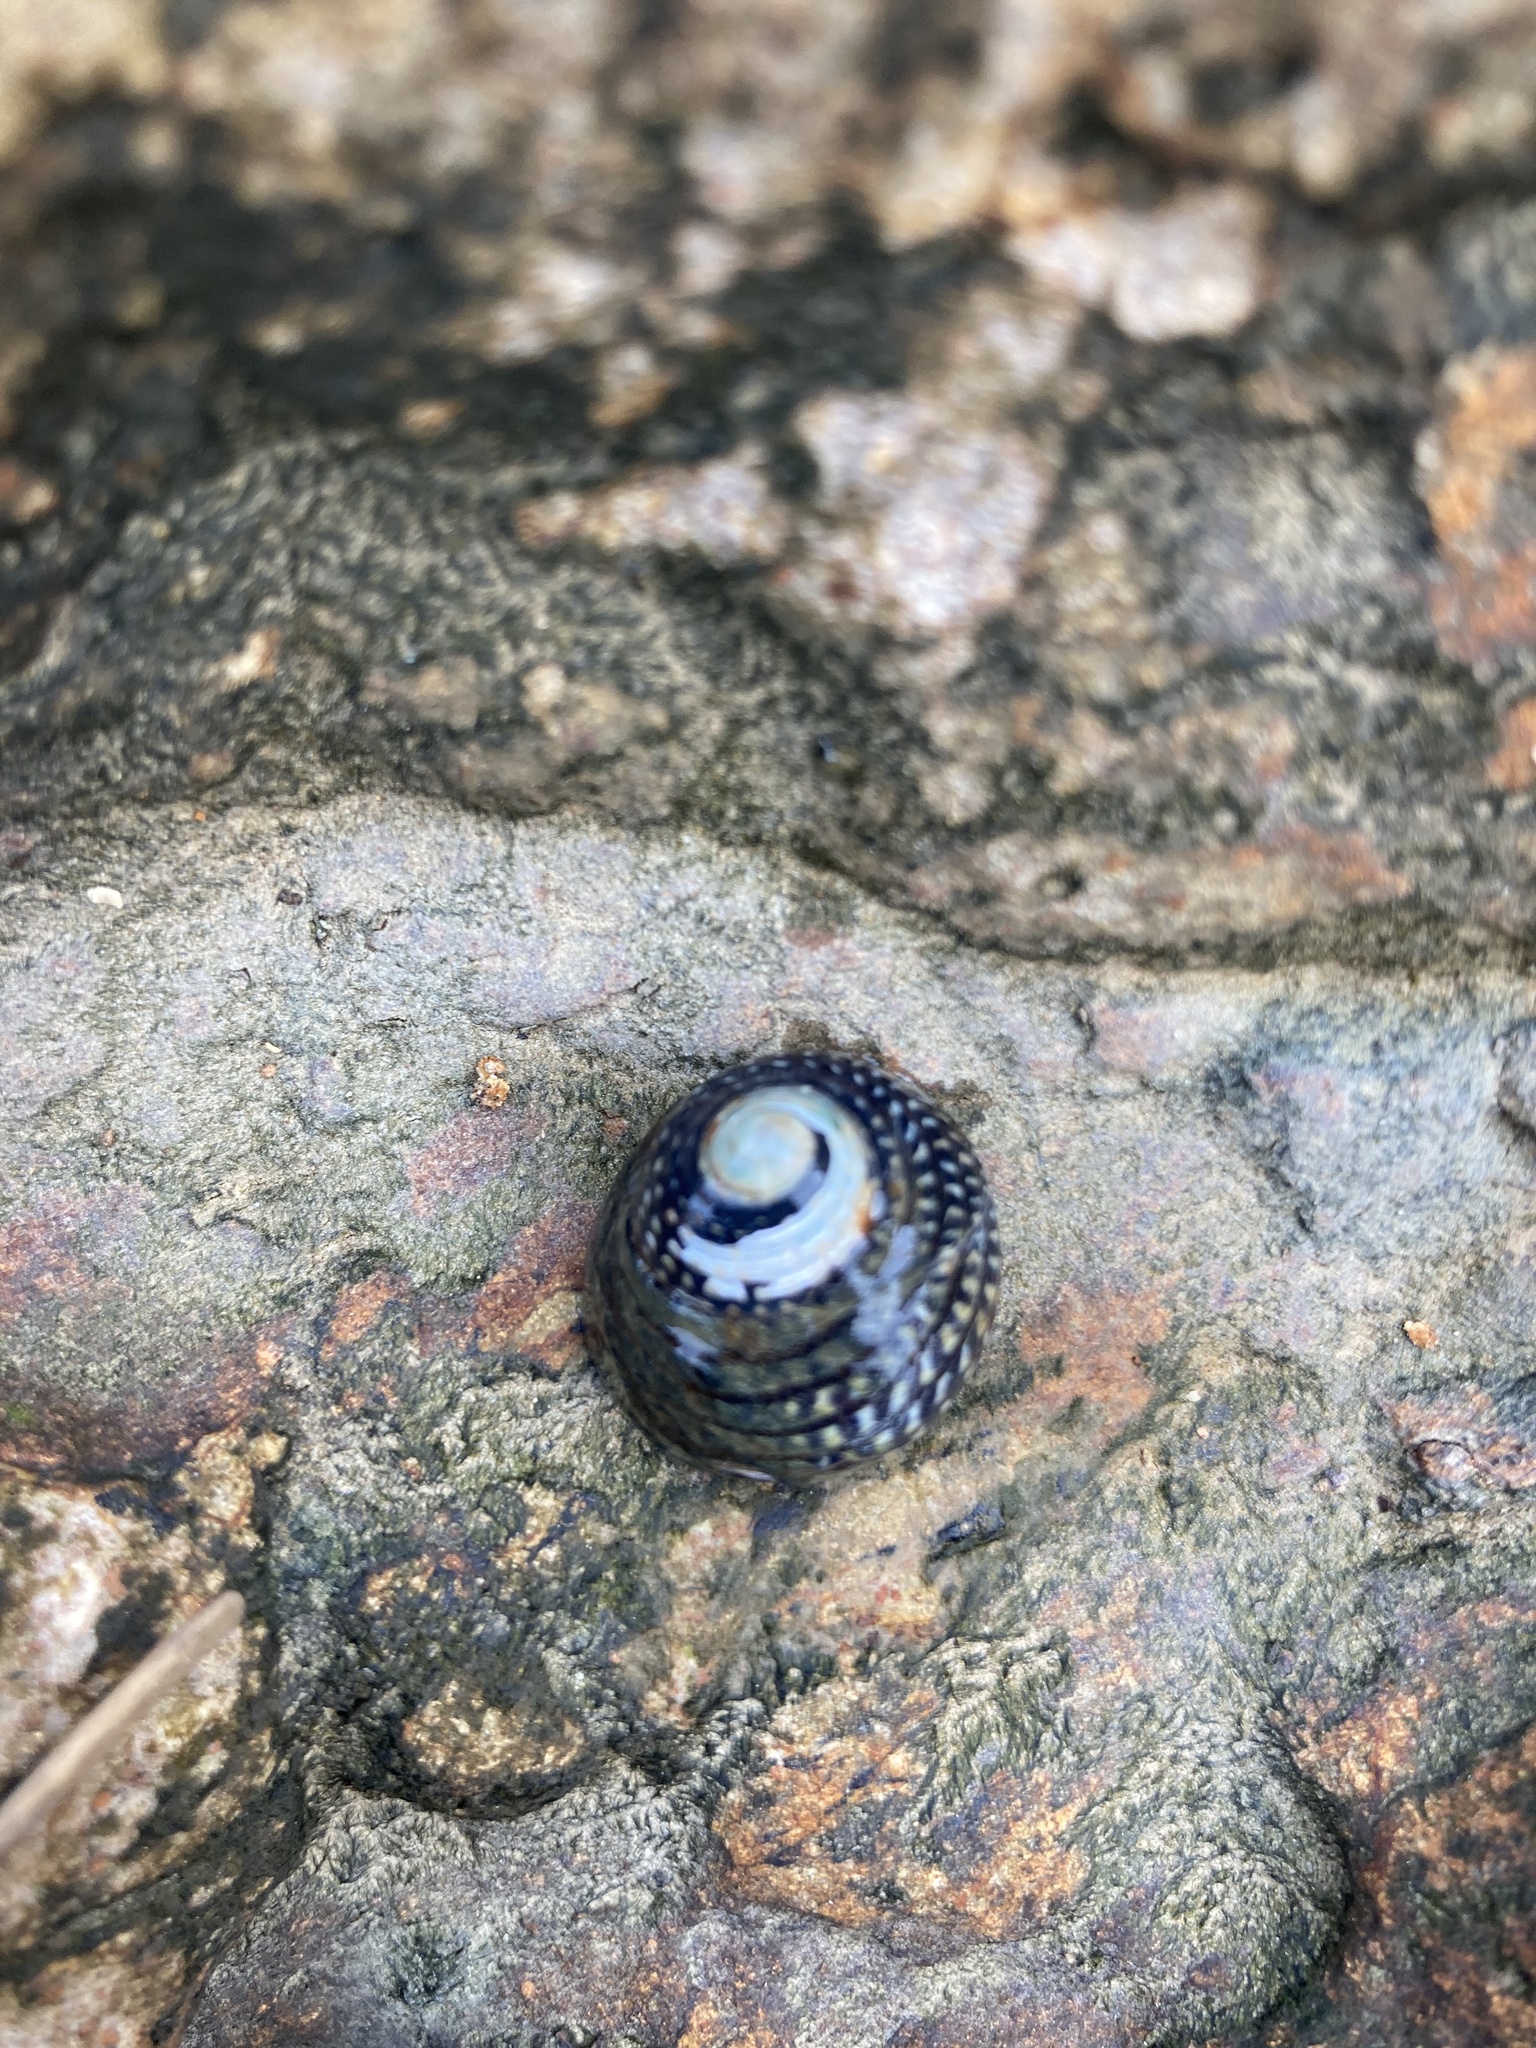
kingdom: Animalia
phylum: Mollusca
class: Gastropoda
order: Trochida
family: Trochidae
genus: Diloma
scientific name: Diloma aethiops
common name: Scorched monodont
